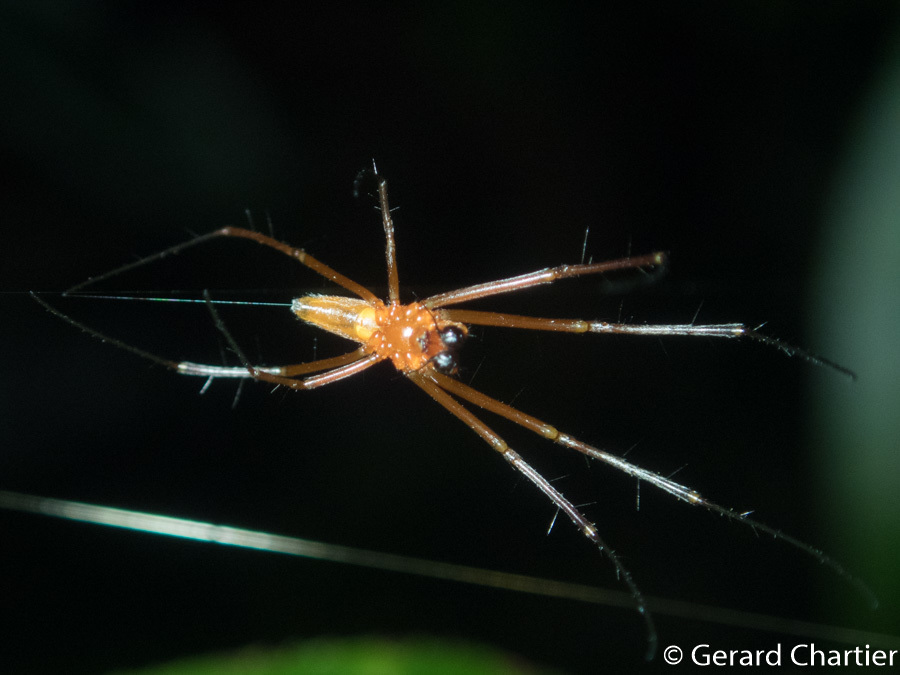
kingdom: Animalia
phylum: Arthropoda
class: Arachnida
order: Araneae
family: Araneidae
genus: Nephila
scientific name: Nephila pilipes
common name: Giant golden orb weaver
